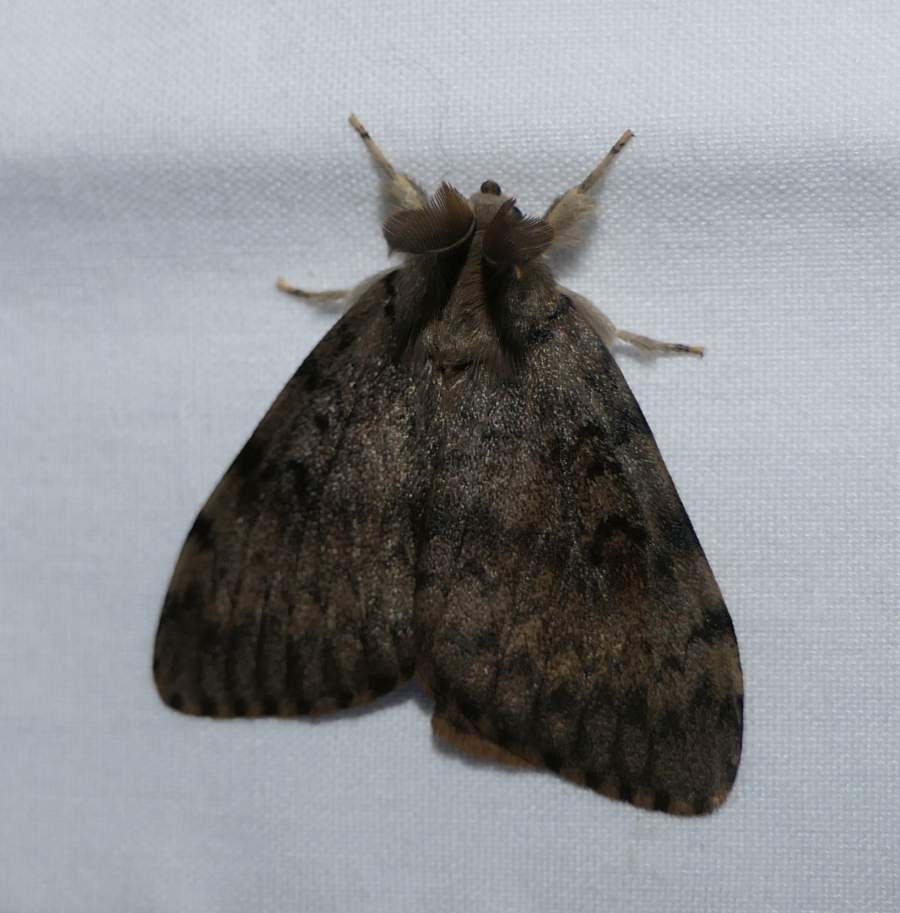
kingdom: Animalia
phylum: Arthropoda
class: Insecta
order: Lepidoptera
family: Erebidae
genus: Lymantria
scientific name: Lymantria dispar
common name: Gypsy moth
